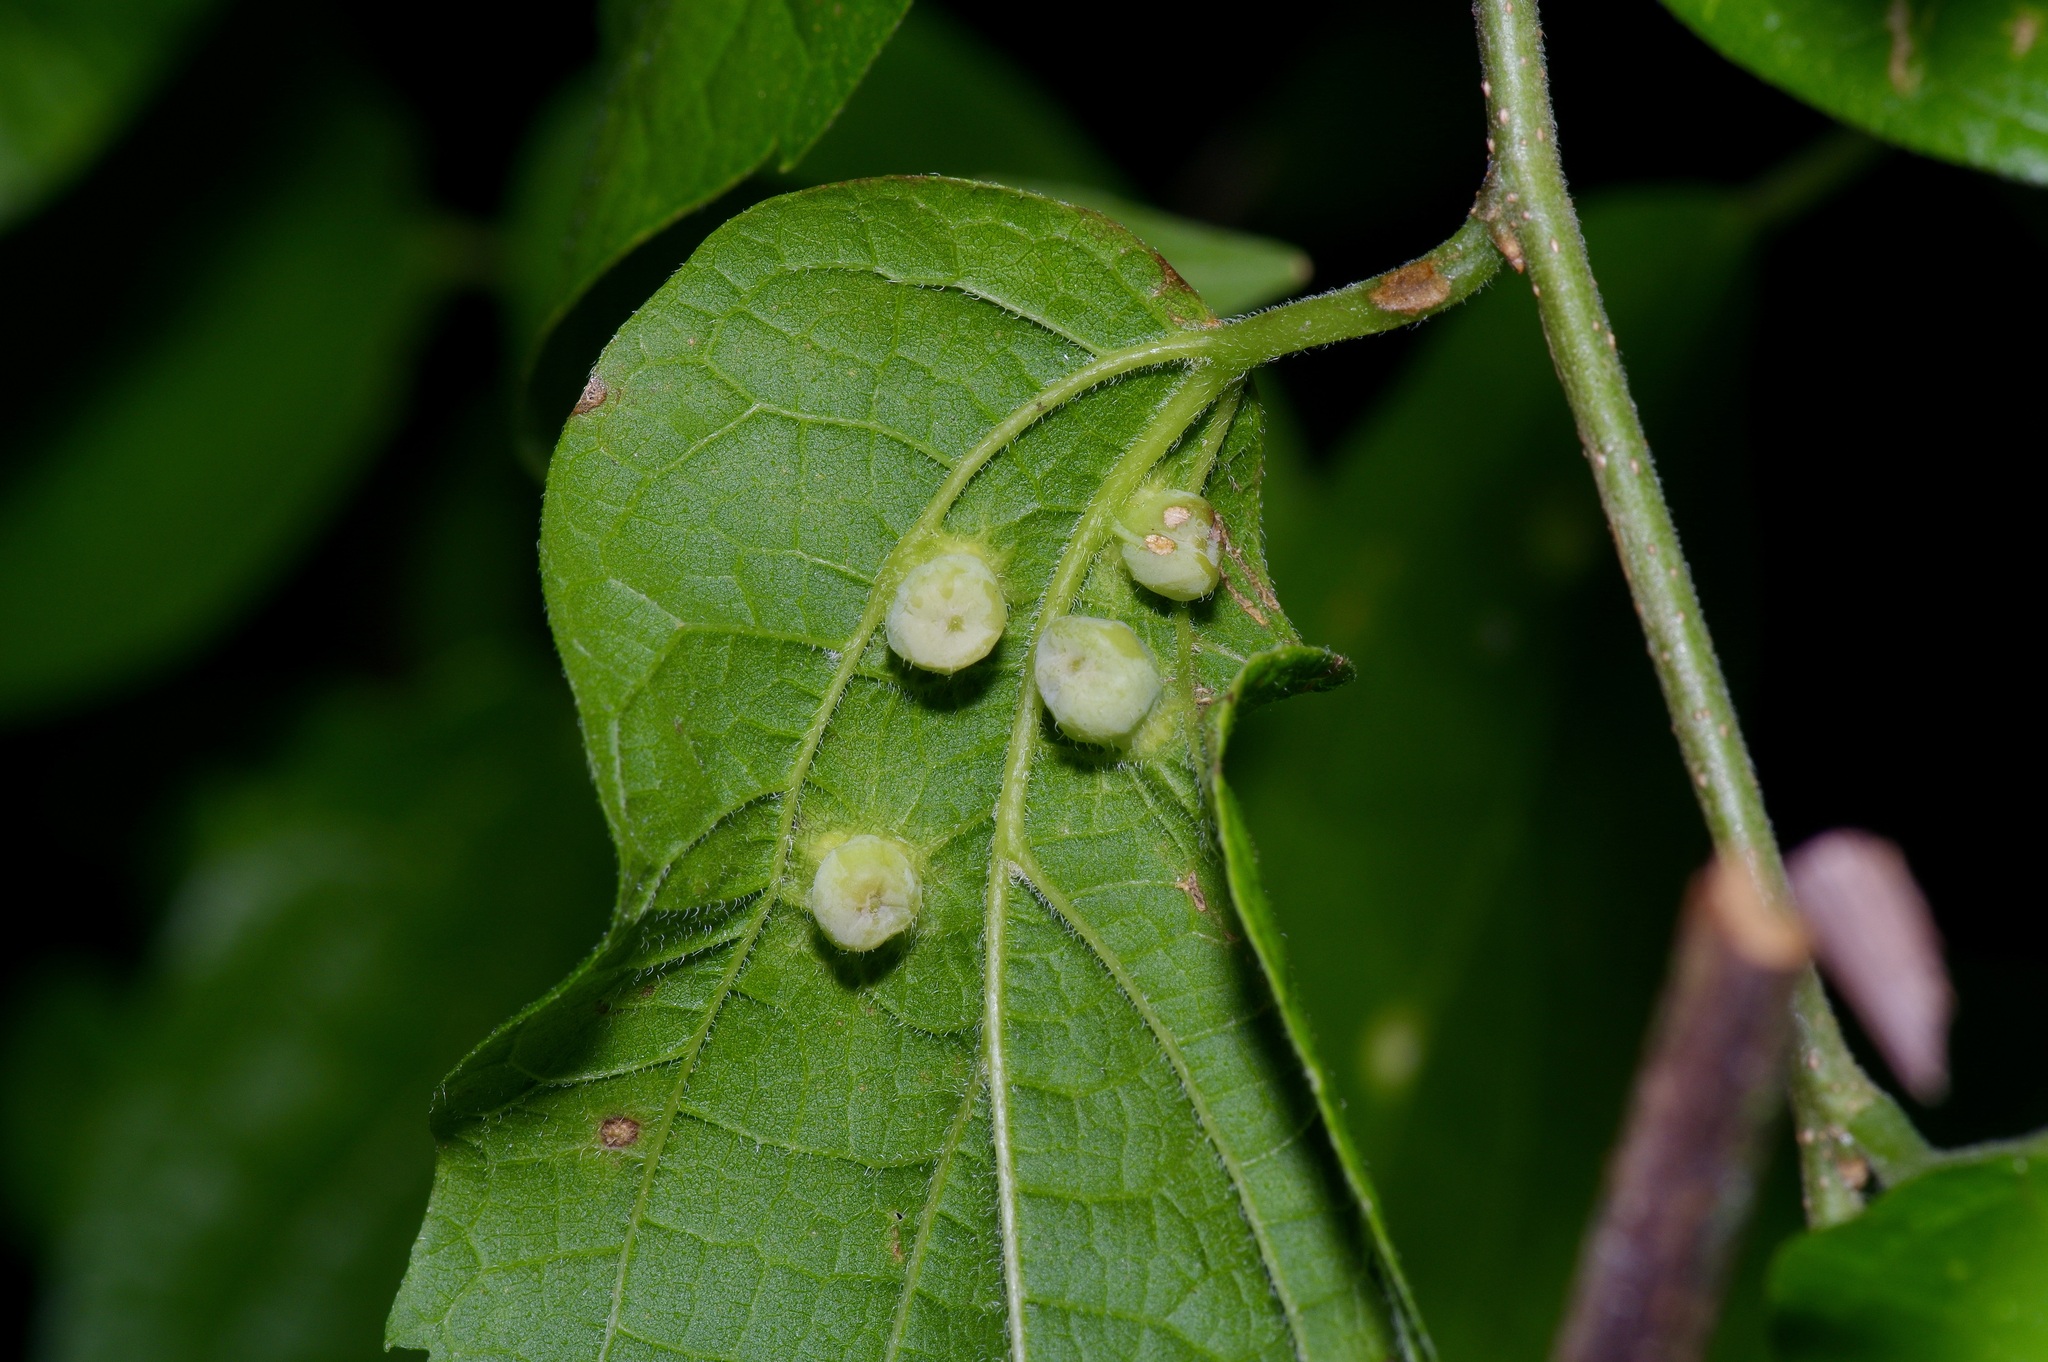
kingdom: Animalia
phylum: Arthropoda
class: Insecta
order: Hemiptera
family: Aphalaridae
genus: Pachypsylla
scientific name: Pachypsylla celtidismamma
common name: Hackberry nipplegall psyllid
